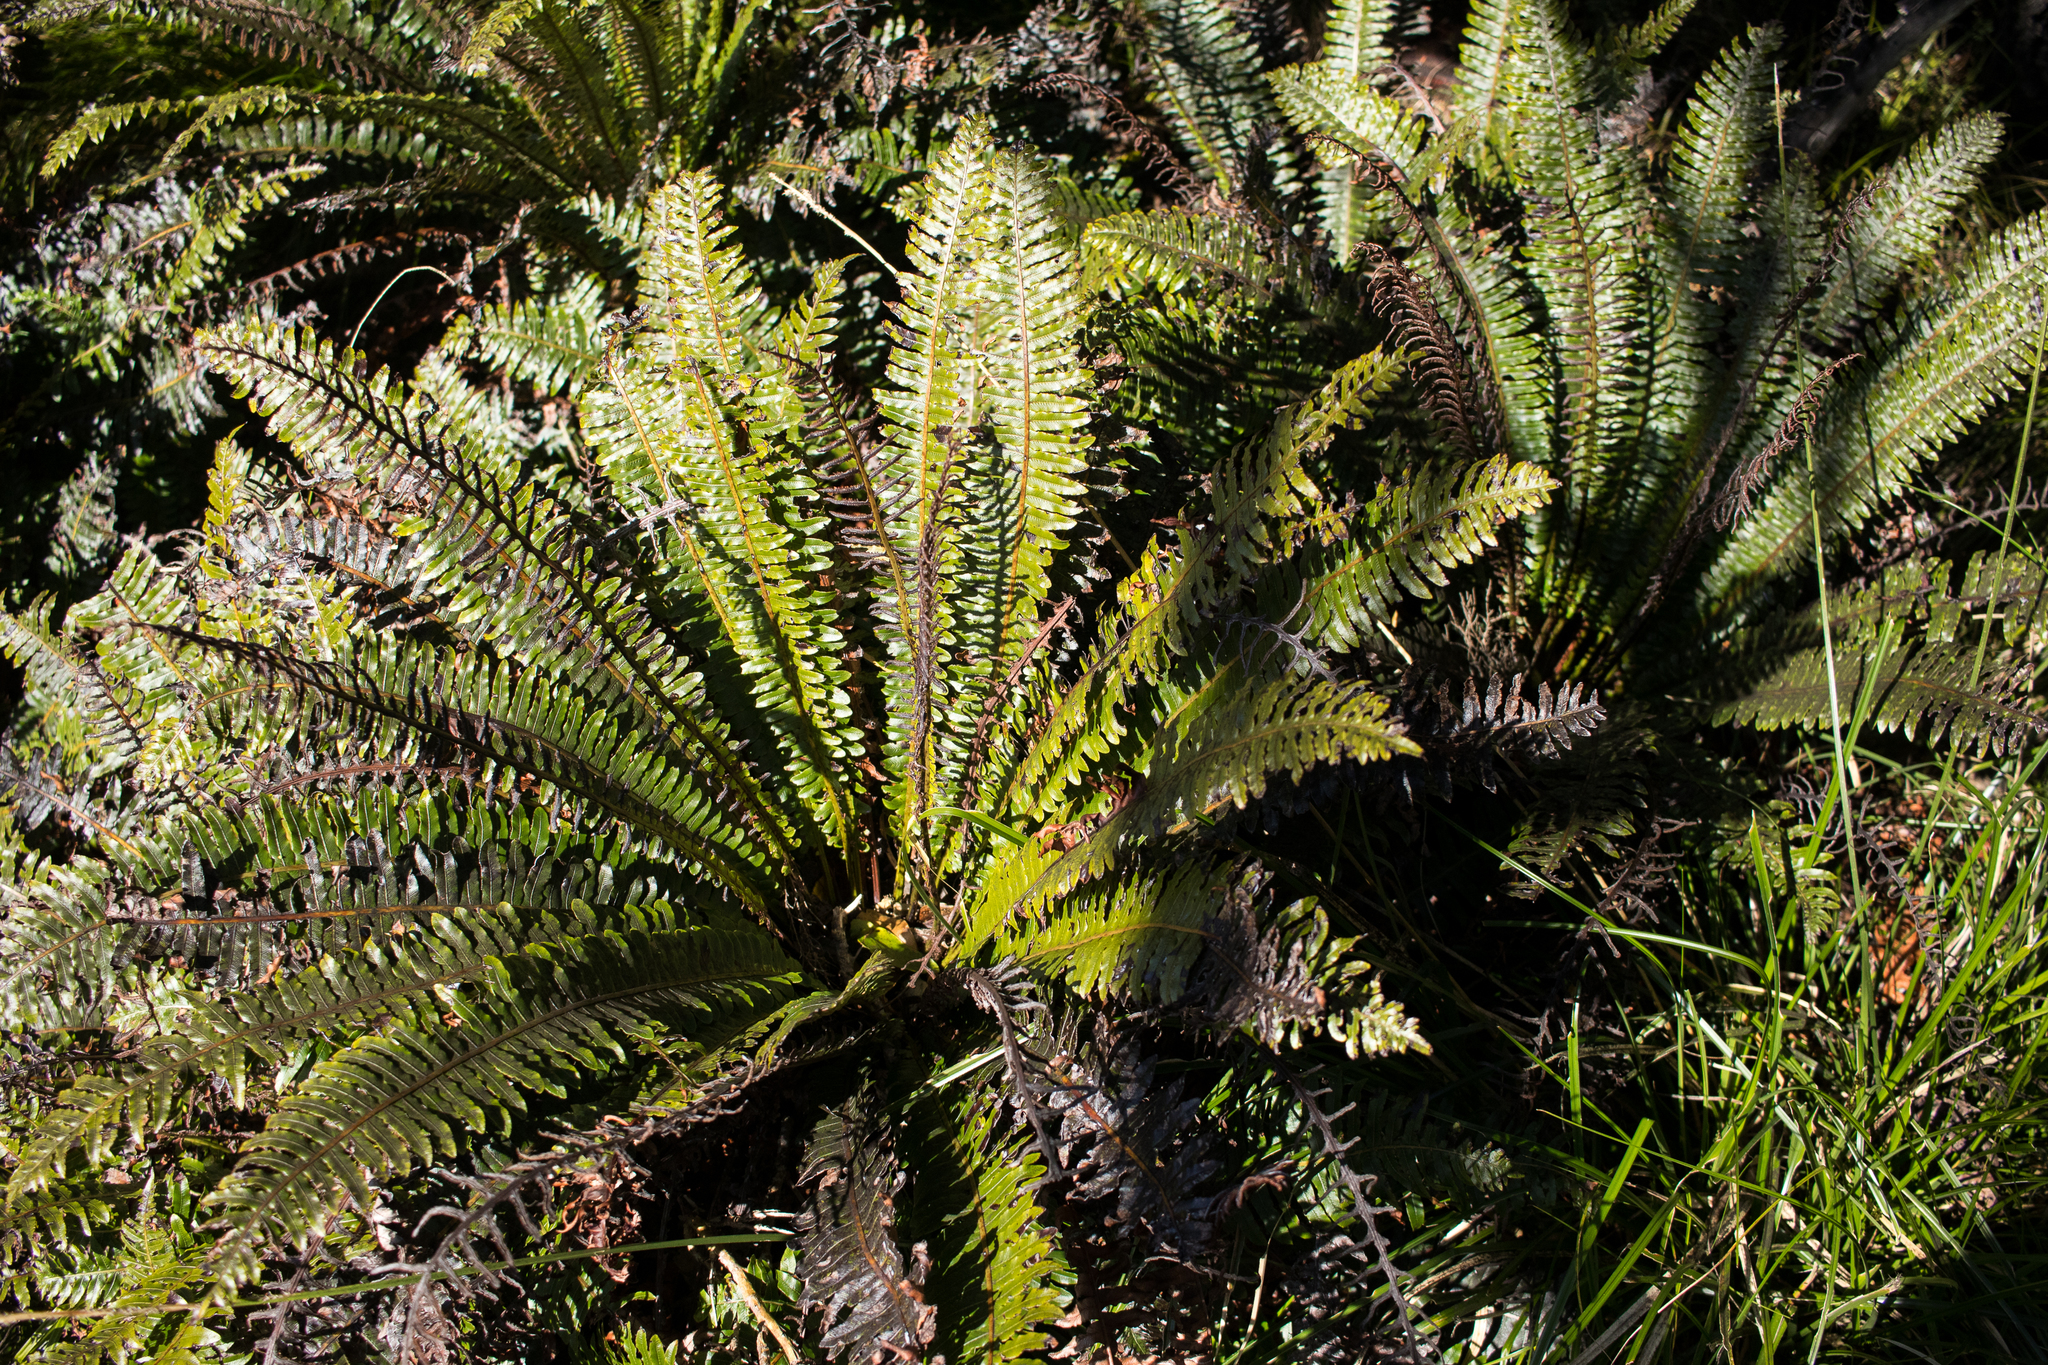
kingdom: Plantae
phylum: Tracheophyta
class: Polypodiopsida
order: Polypodiales
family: Blechnaceae
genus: Lomaria
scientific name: Lomaria discolor
